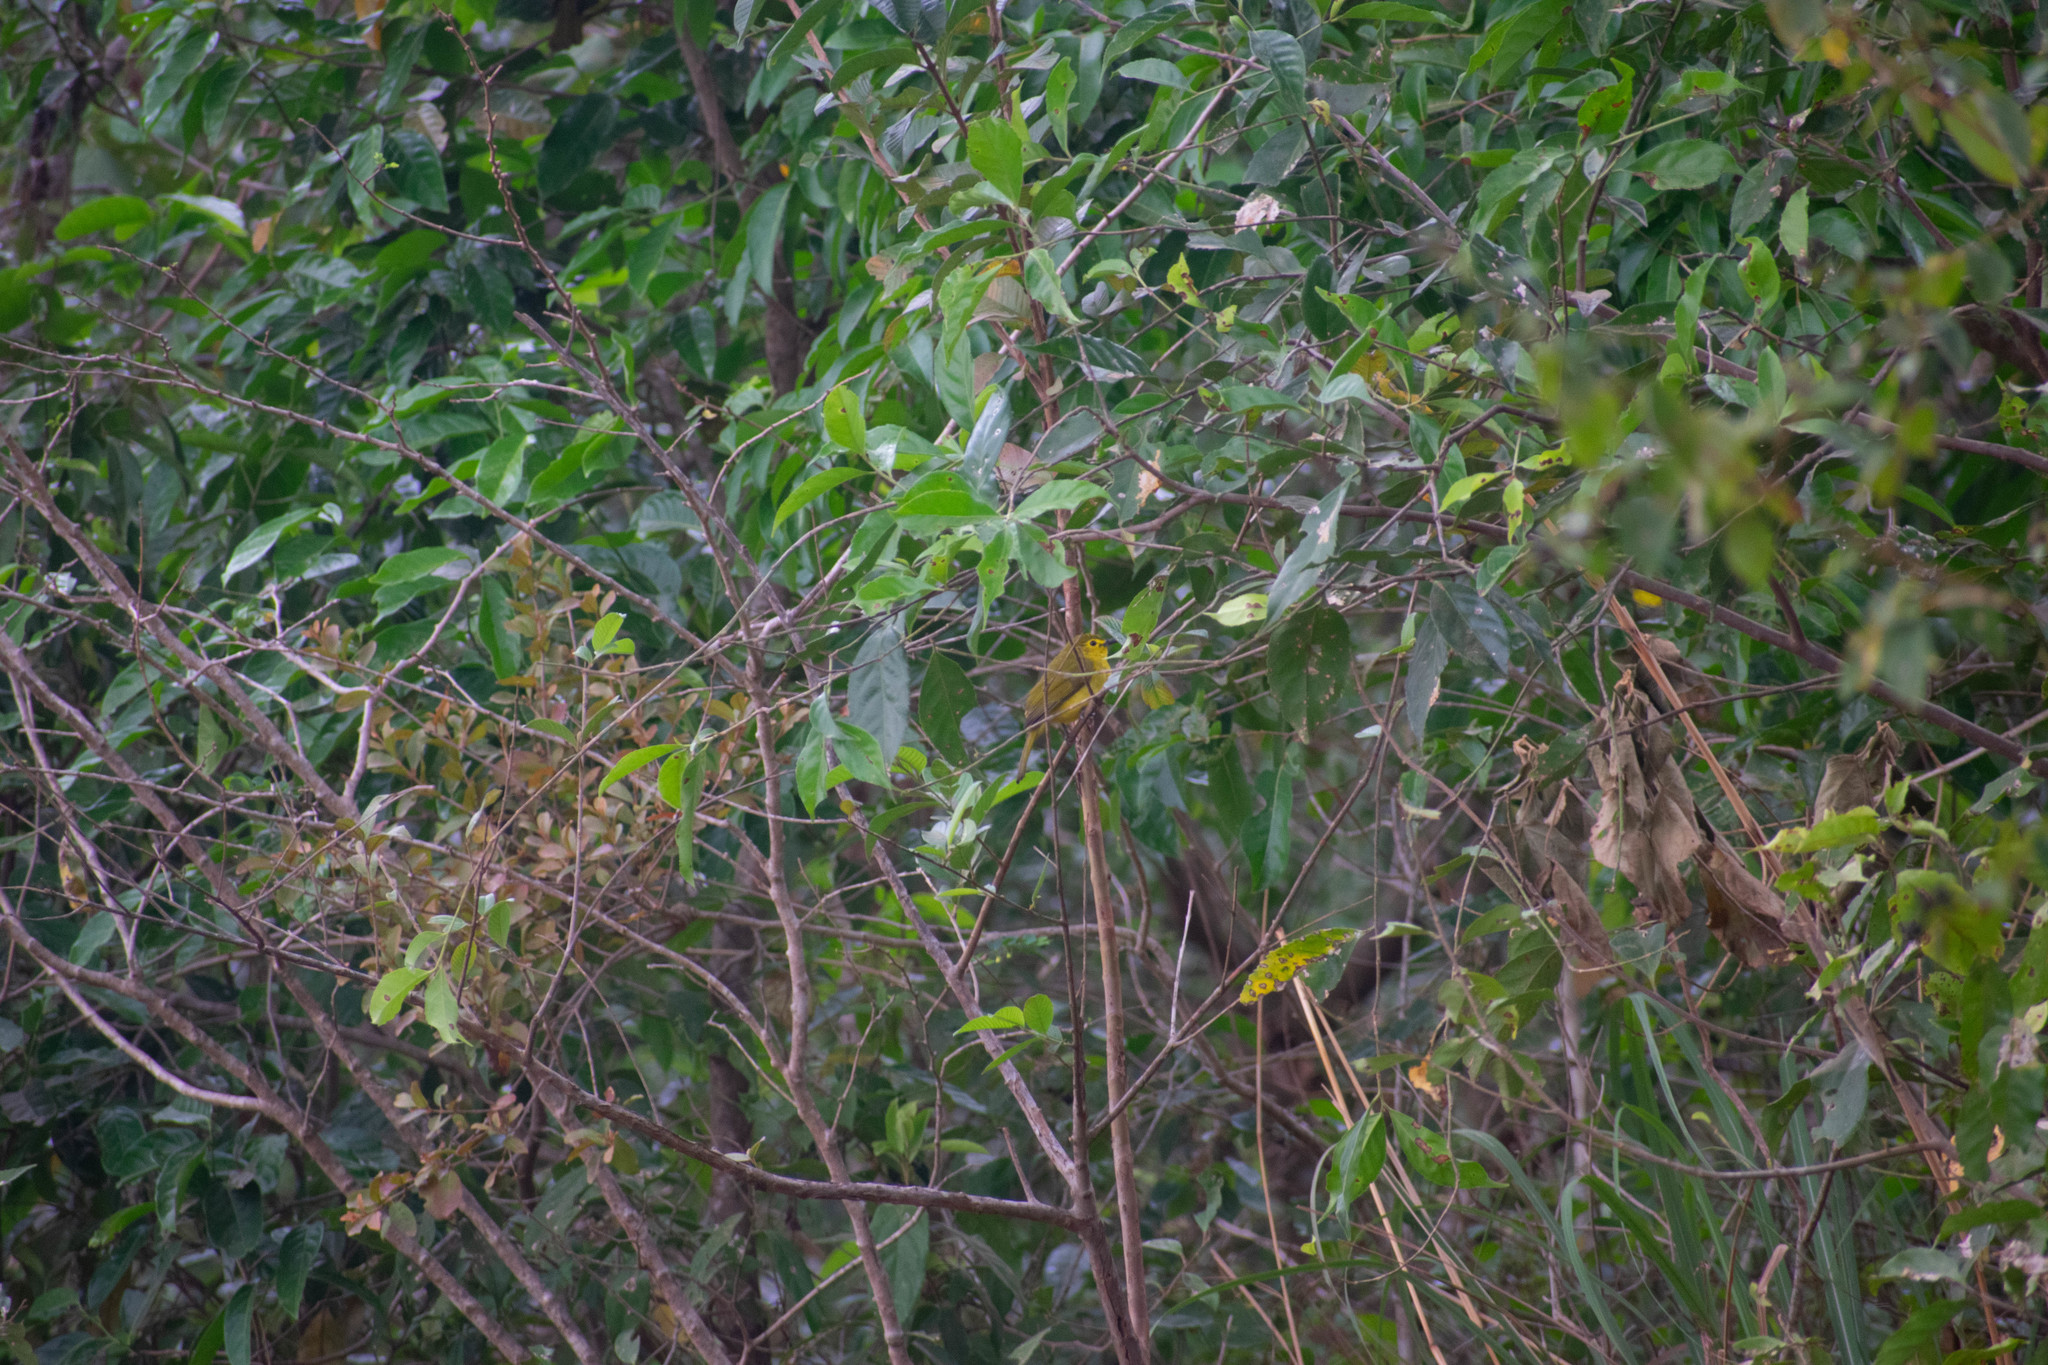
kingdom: Animalia
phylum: Chordata
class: Aves
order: Passeriformes
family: Pycnonotidae
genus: Acritillas
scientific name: Acritillas indica
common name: Yellow-browed bulbul
